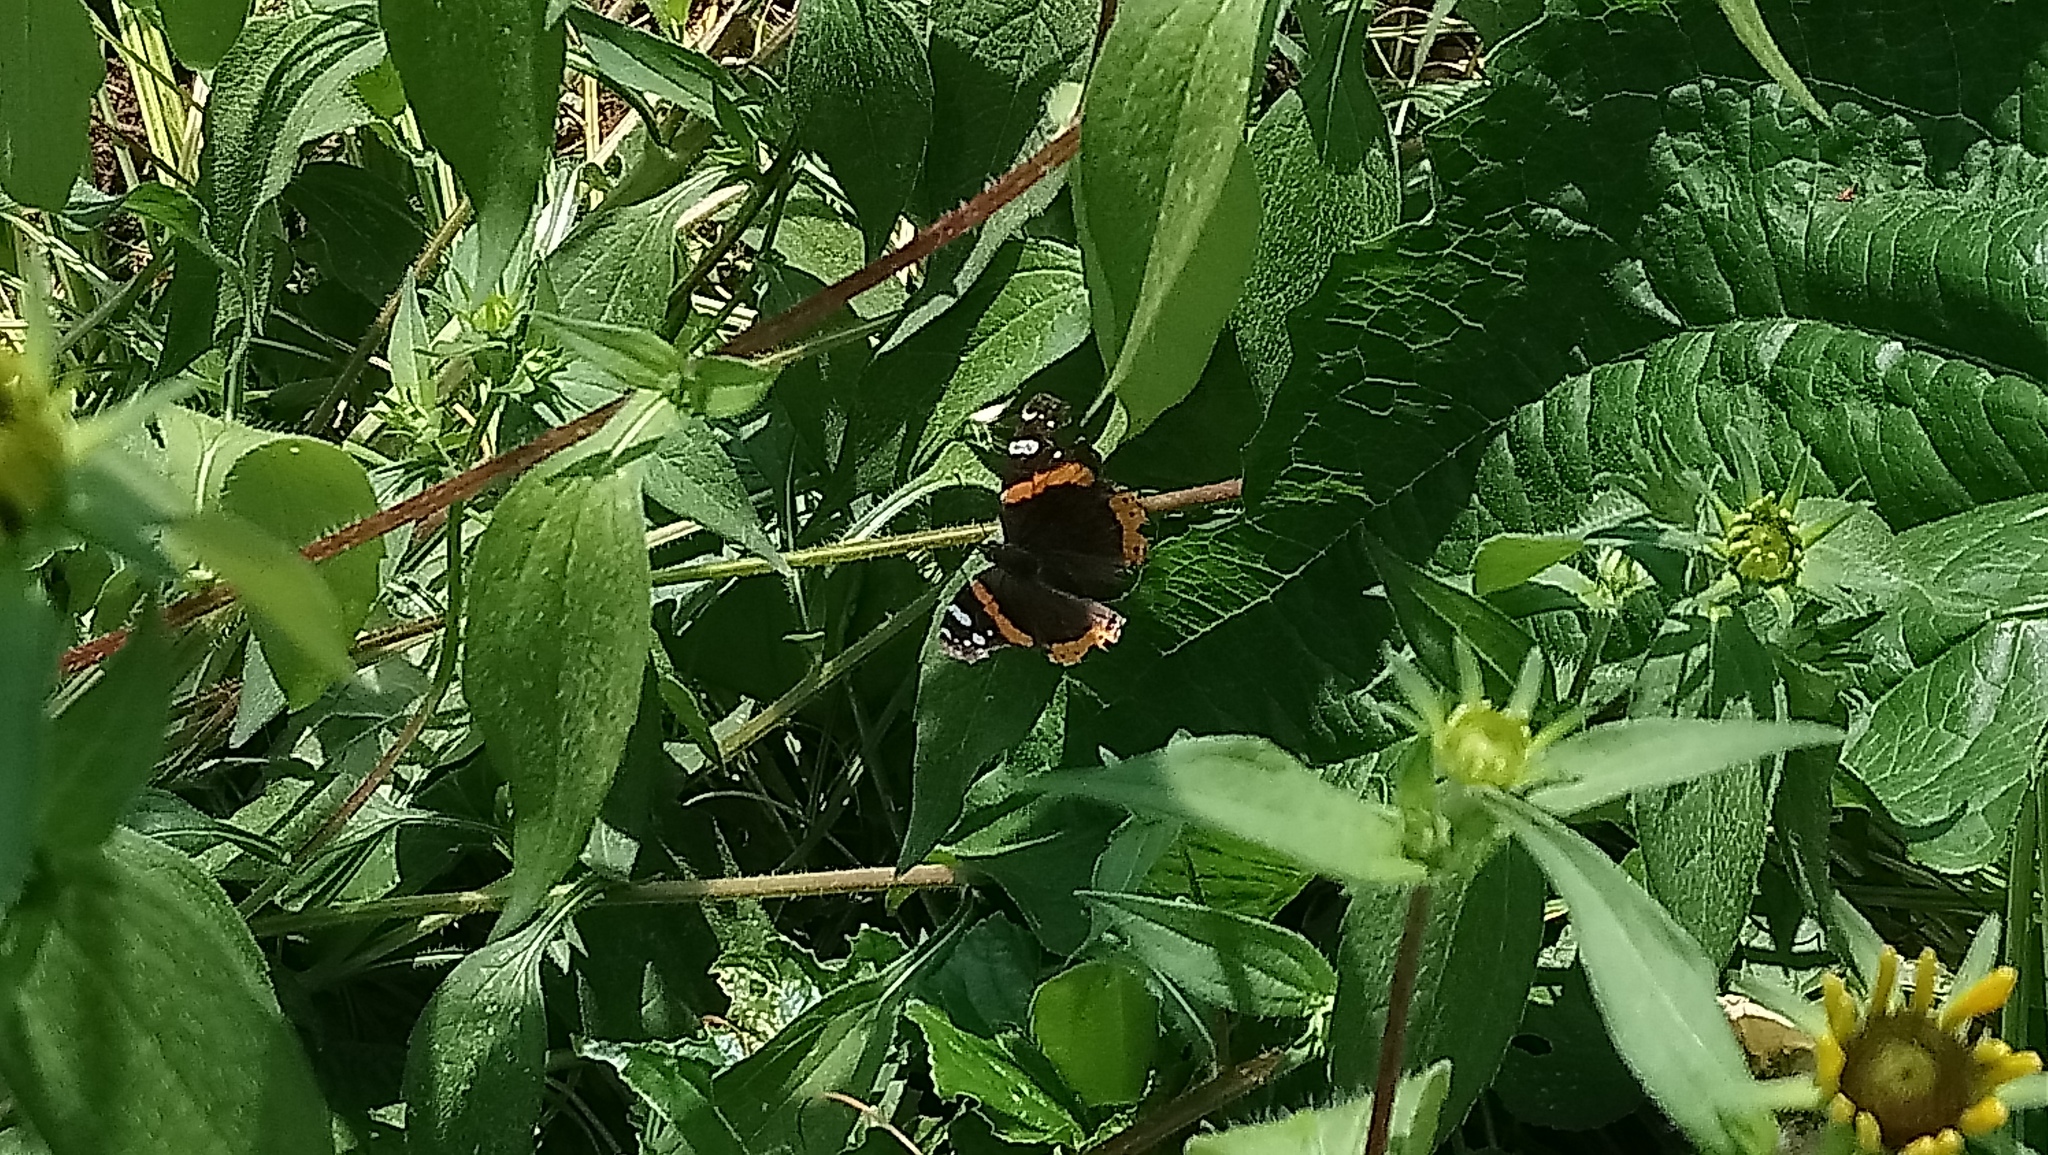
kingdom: Animalia
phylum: Arthropoda
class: Insecta
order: Lepidoptera
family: Nymphalidae
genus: Vanessa
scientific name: Vanessa atalanta
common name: Red admiral
